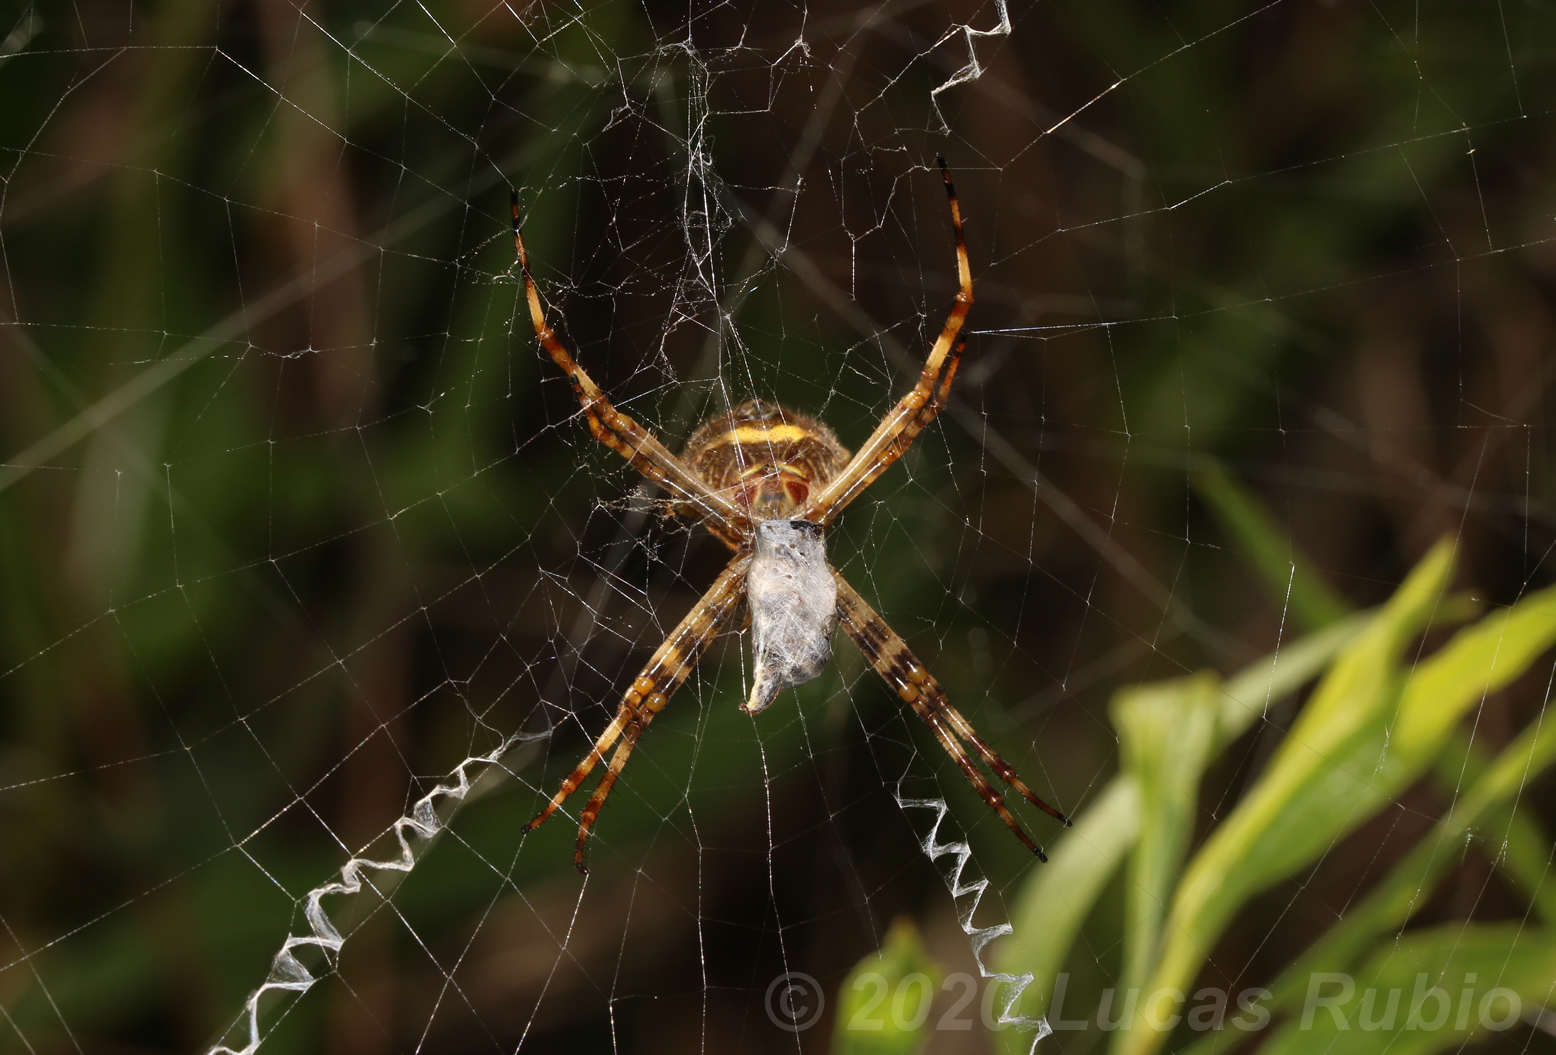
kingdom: Animalia
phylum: Arthropoda
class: Arachnida
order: Araneae
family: Araneidae
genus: Argiope
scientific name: Argiope argentata
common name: Orb weavers
